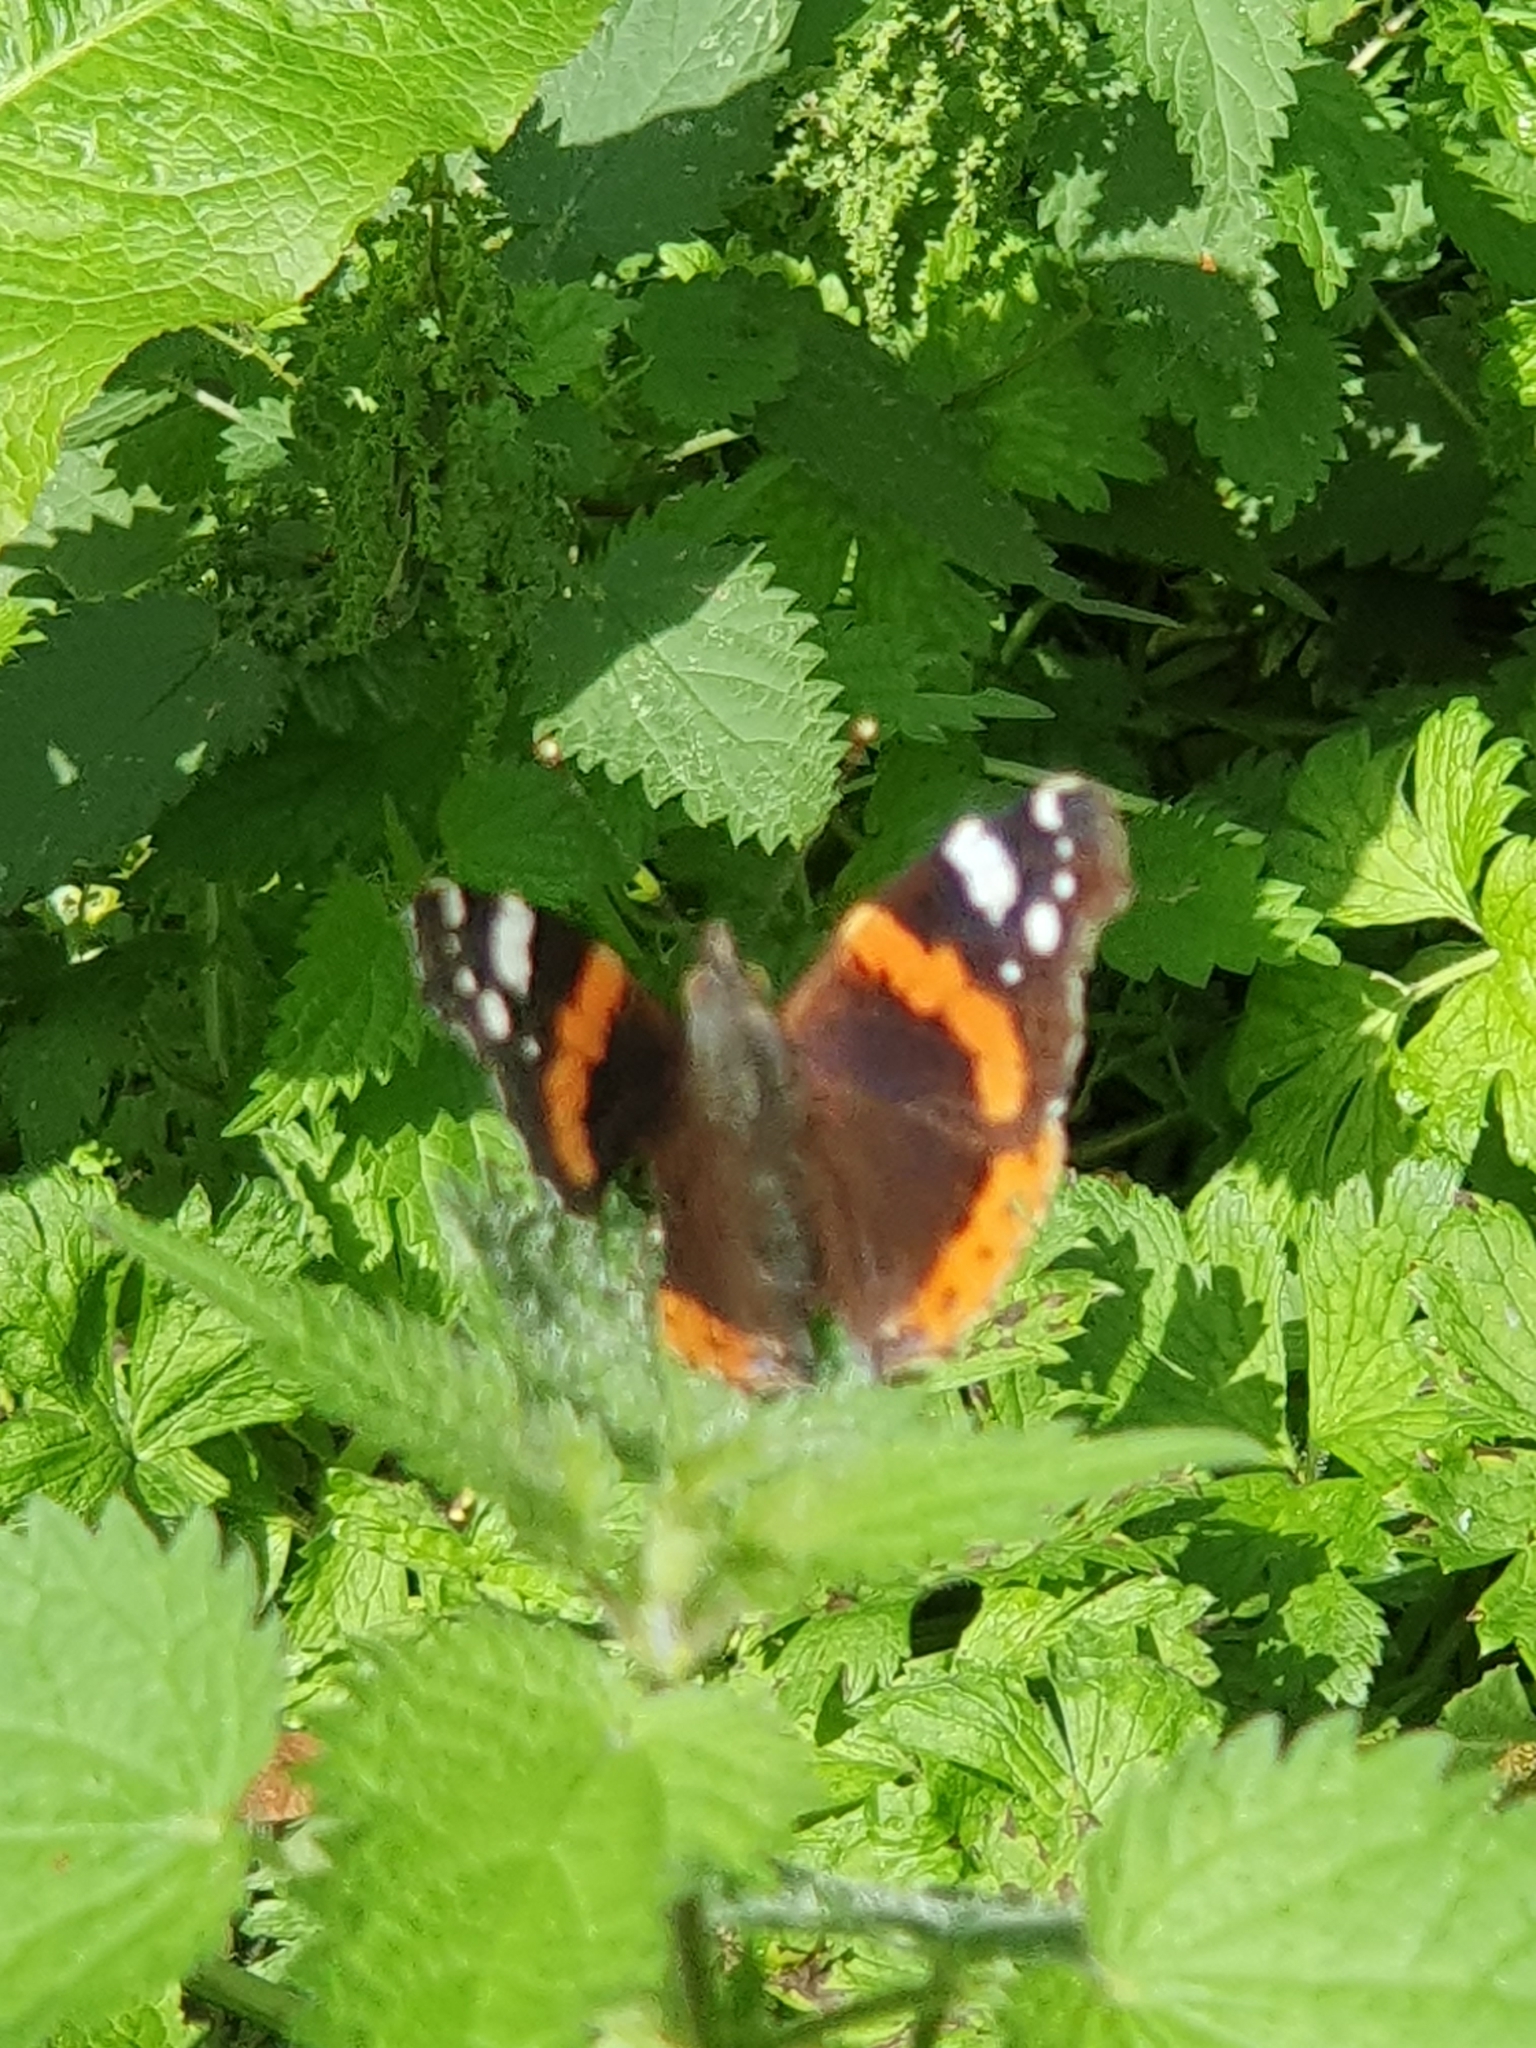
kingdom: Animalia
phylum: Arthropoda
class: Insecta
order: Lepidoptera
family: Nymphalidae
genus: Vanessa
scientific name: Vanessa atalanta
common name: Red admiral
